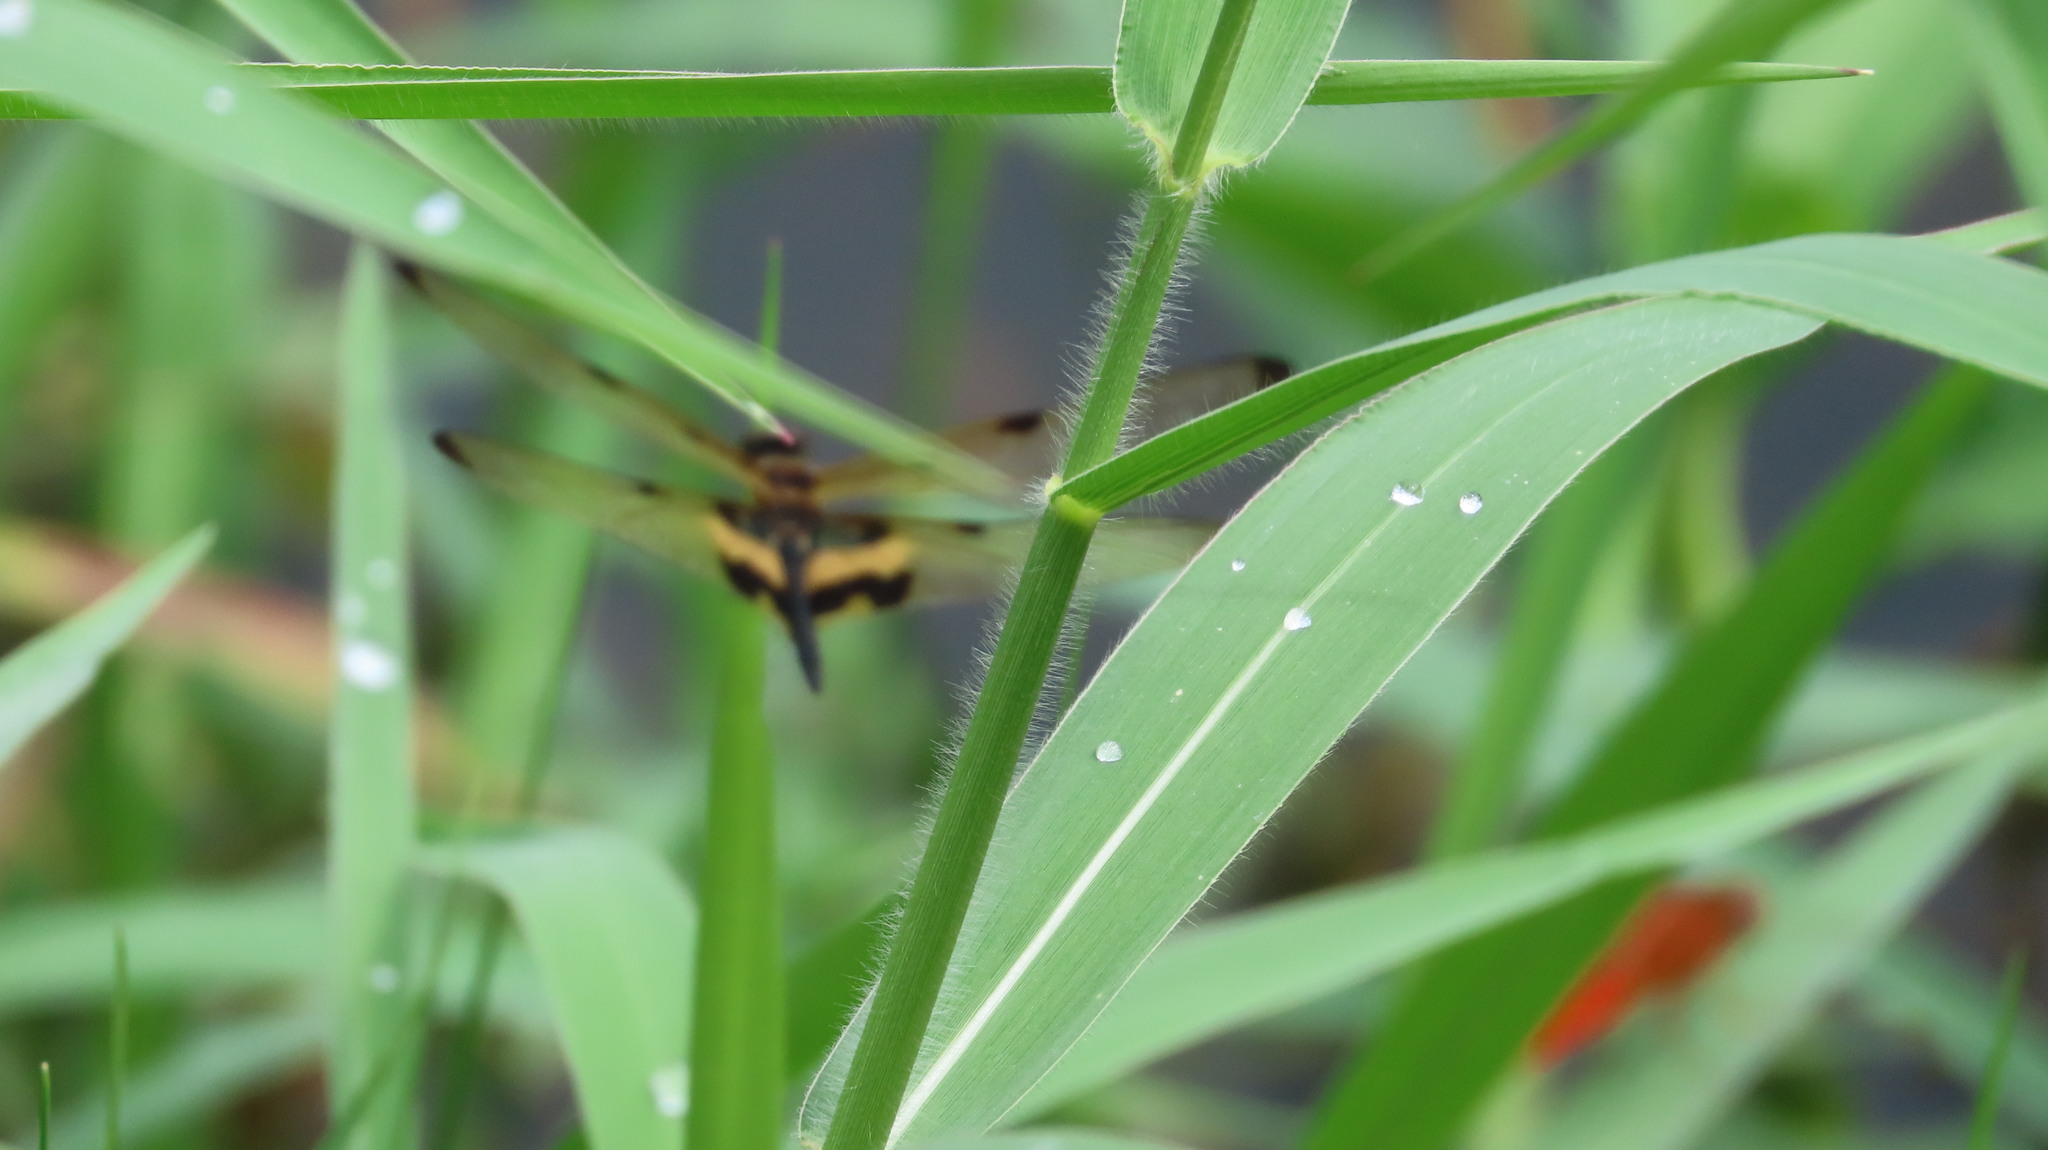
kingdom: Animalia
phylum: Arthropoda
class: Insecta
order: Odonata
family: Libellulidae
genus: Rhyothemis
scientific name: Rhyothemis variegata
